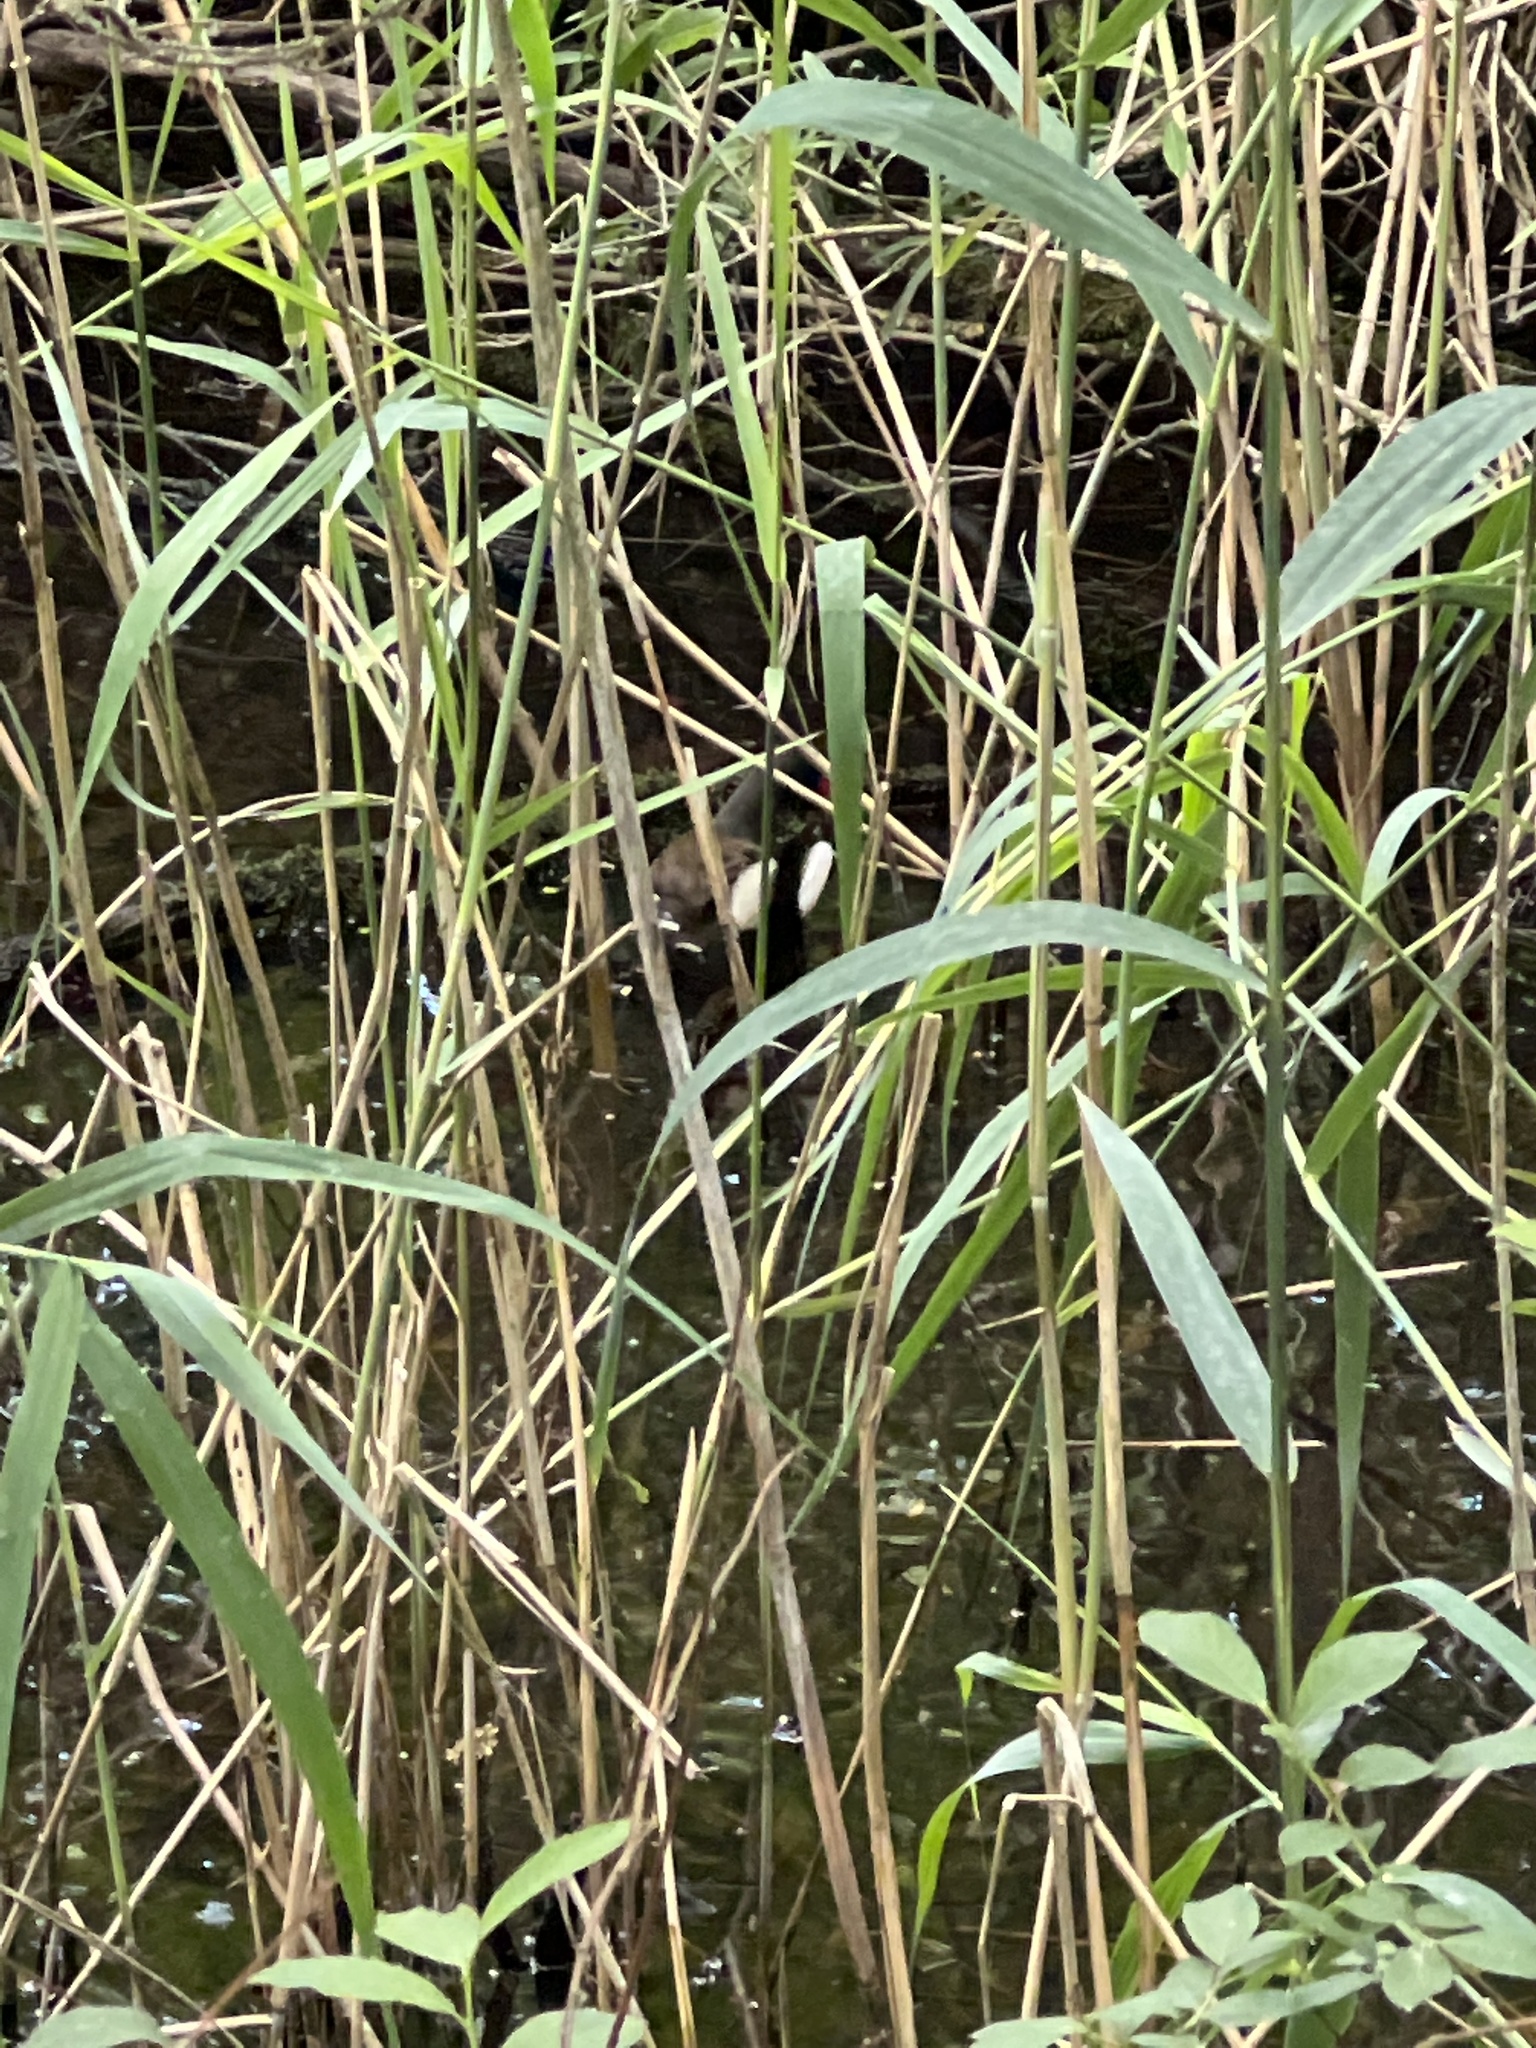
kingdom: Animalia
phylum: Chordata
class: Aves
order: Gruiformes
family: Rallidae
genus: Gallinula
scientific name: Gallinula chloropus
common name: Common moorhen
